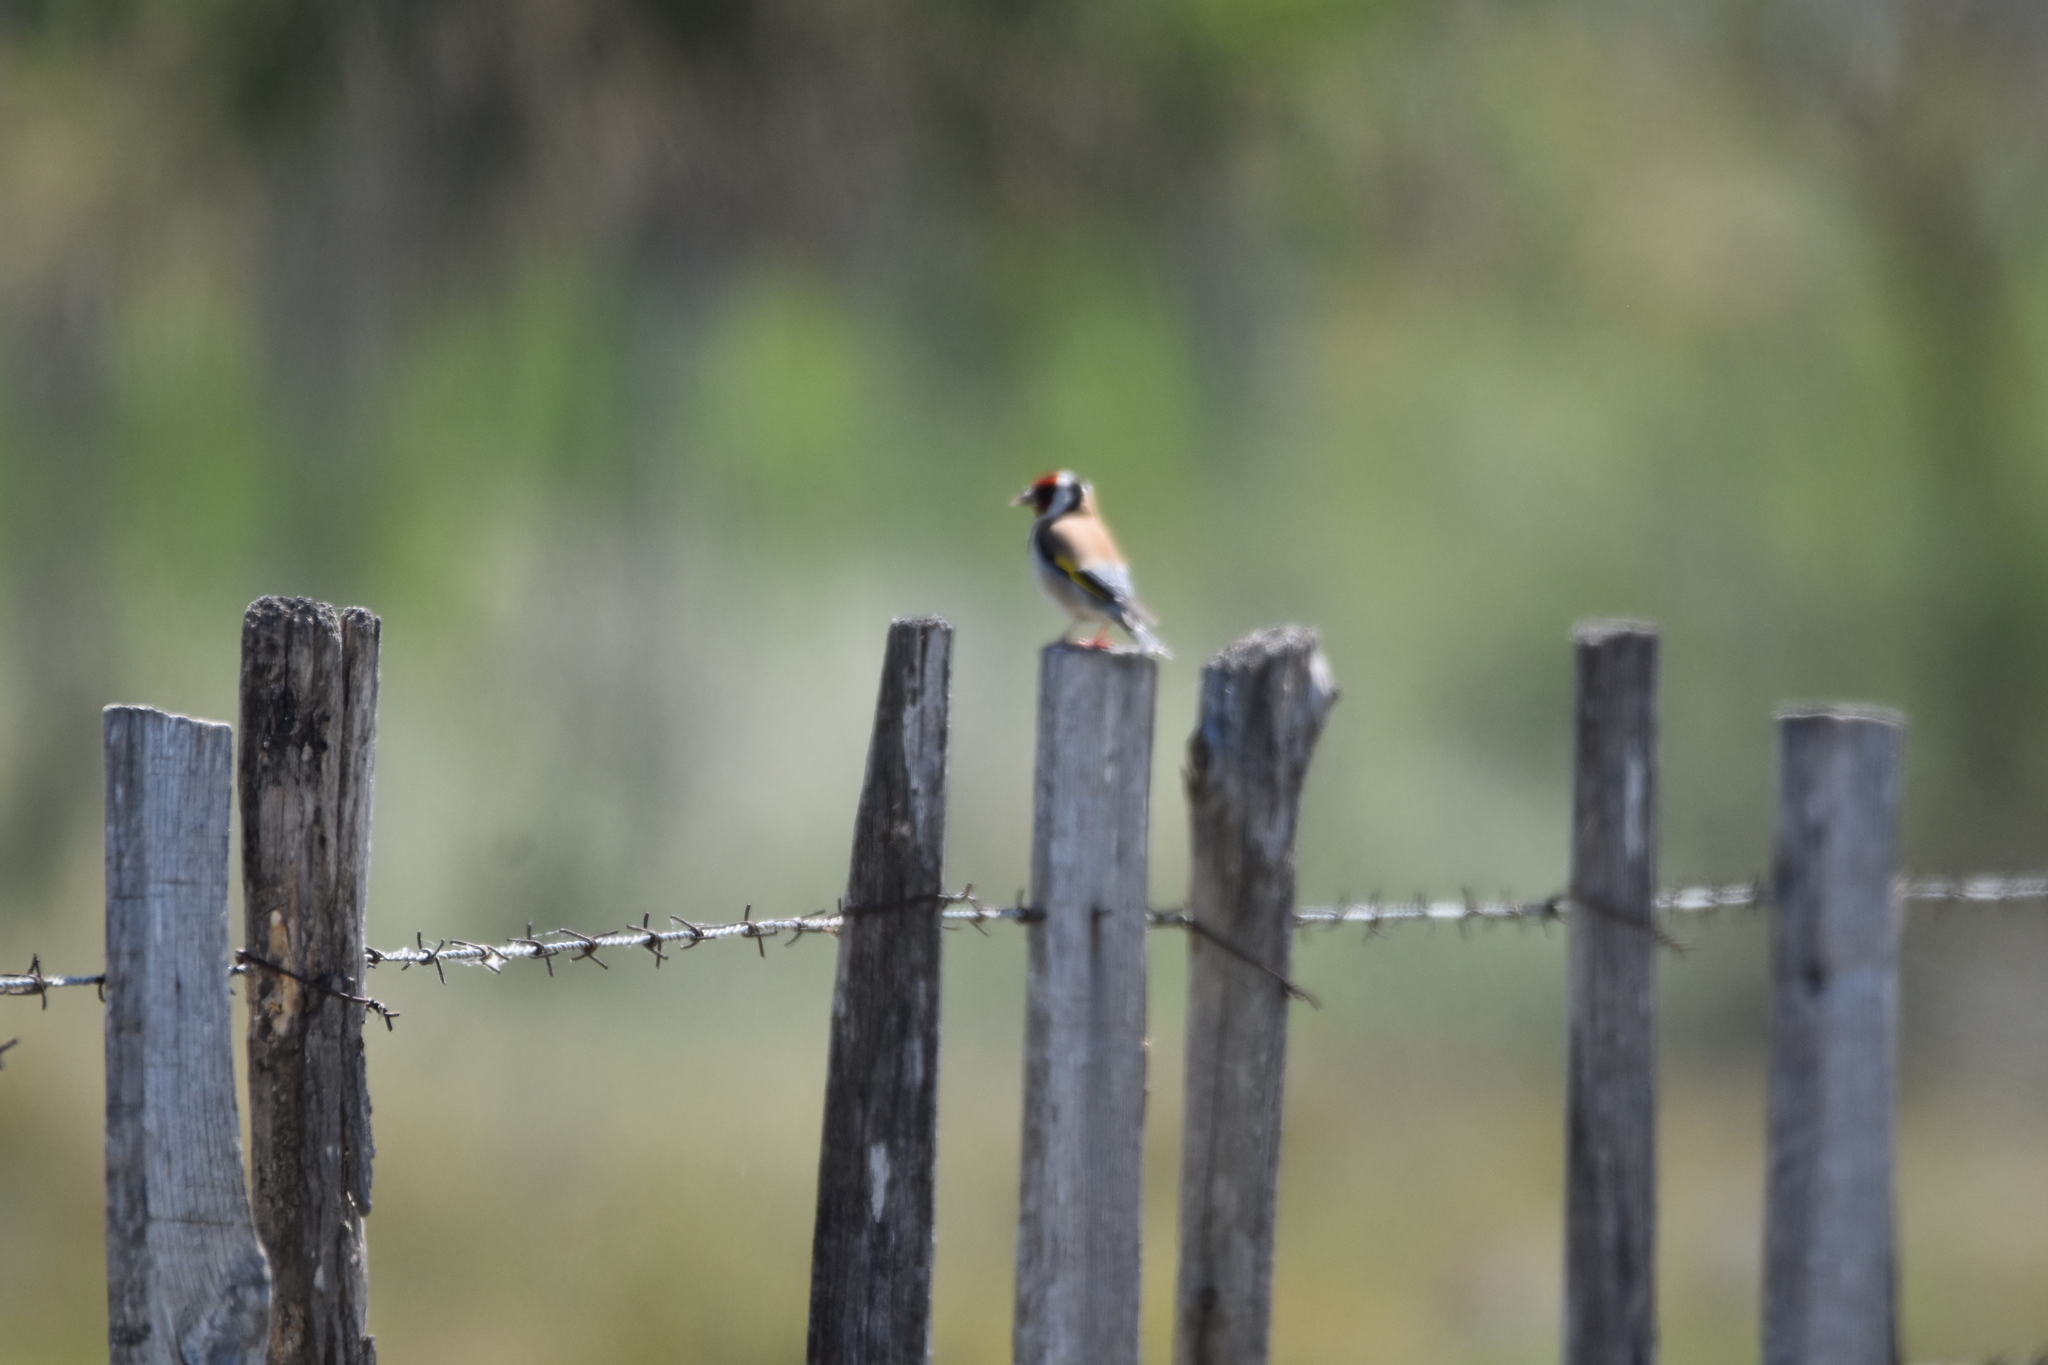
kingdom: Animalia
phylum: Chordata
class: Aves
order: Passeriformes
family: Fringillidae
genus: Carduelis
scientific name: Carduelis carduelis
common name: European goldfinch
